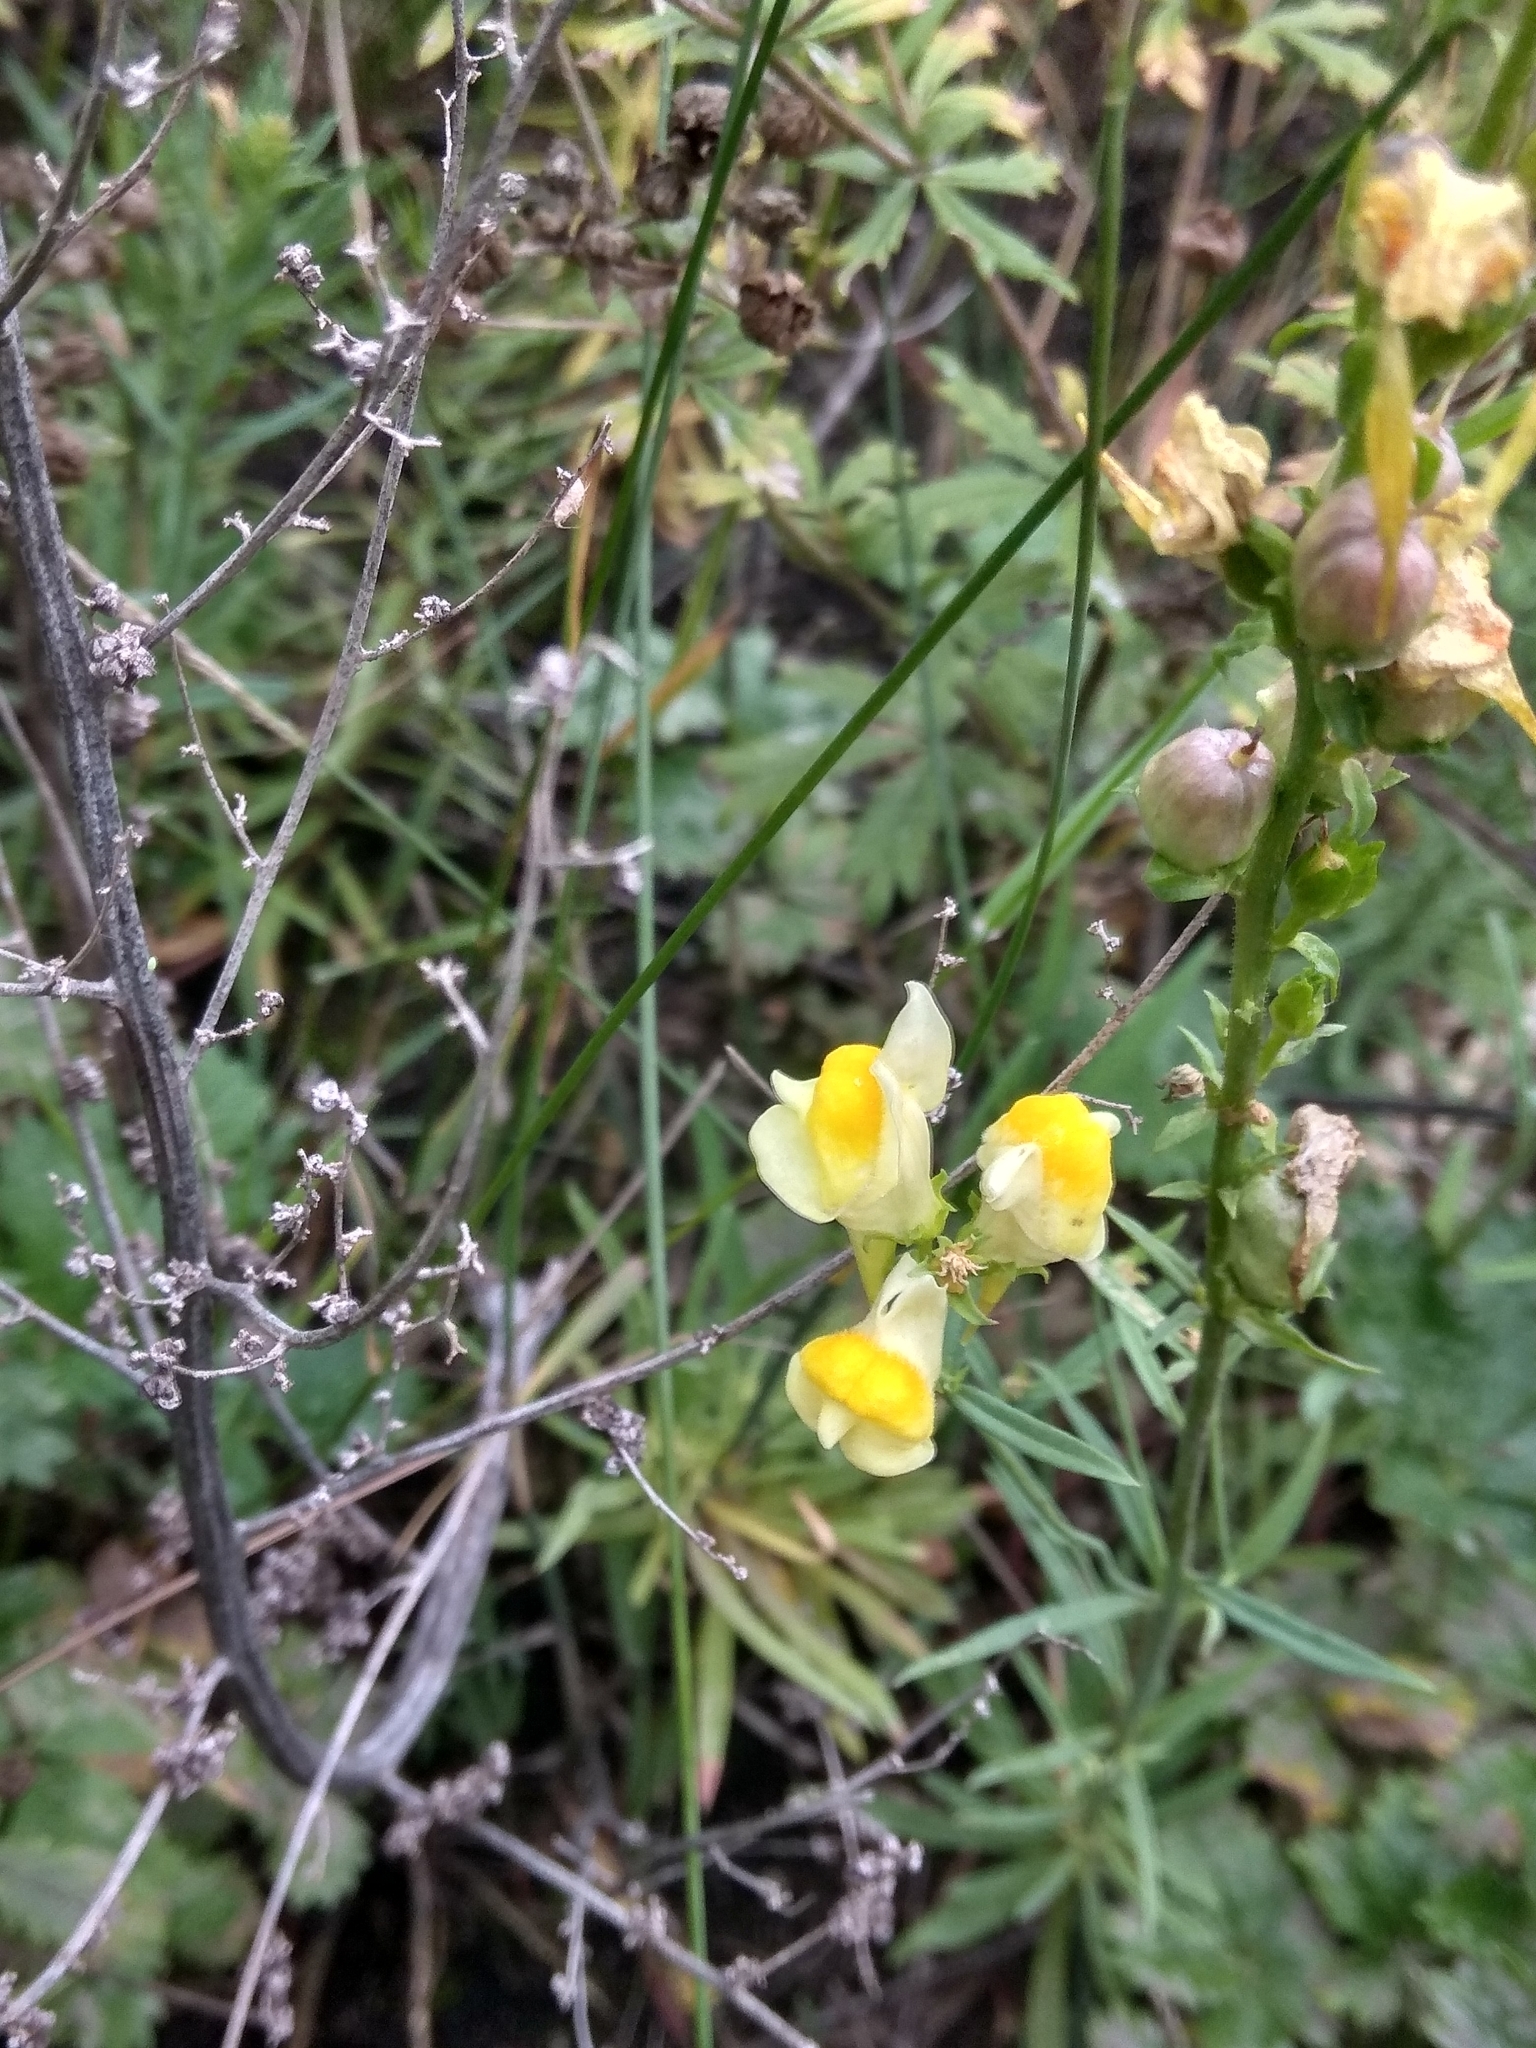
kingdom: Plantae
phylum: Tracheophyta
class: Magnoliopsida
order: Lamiales
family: Plantaginaceae
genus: Linaria
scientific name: Linaria vulgaris
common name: Butter and eggs
